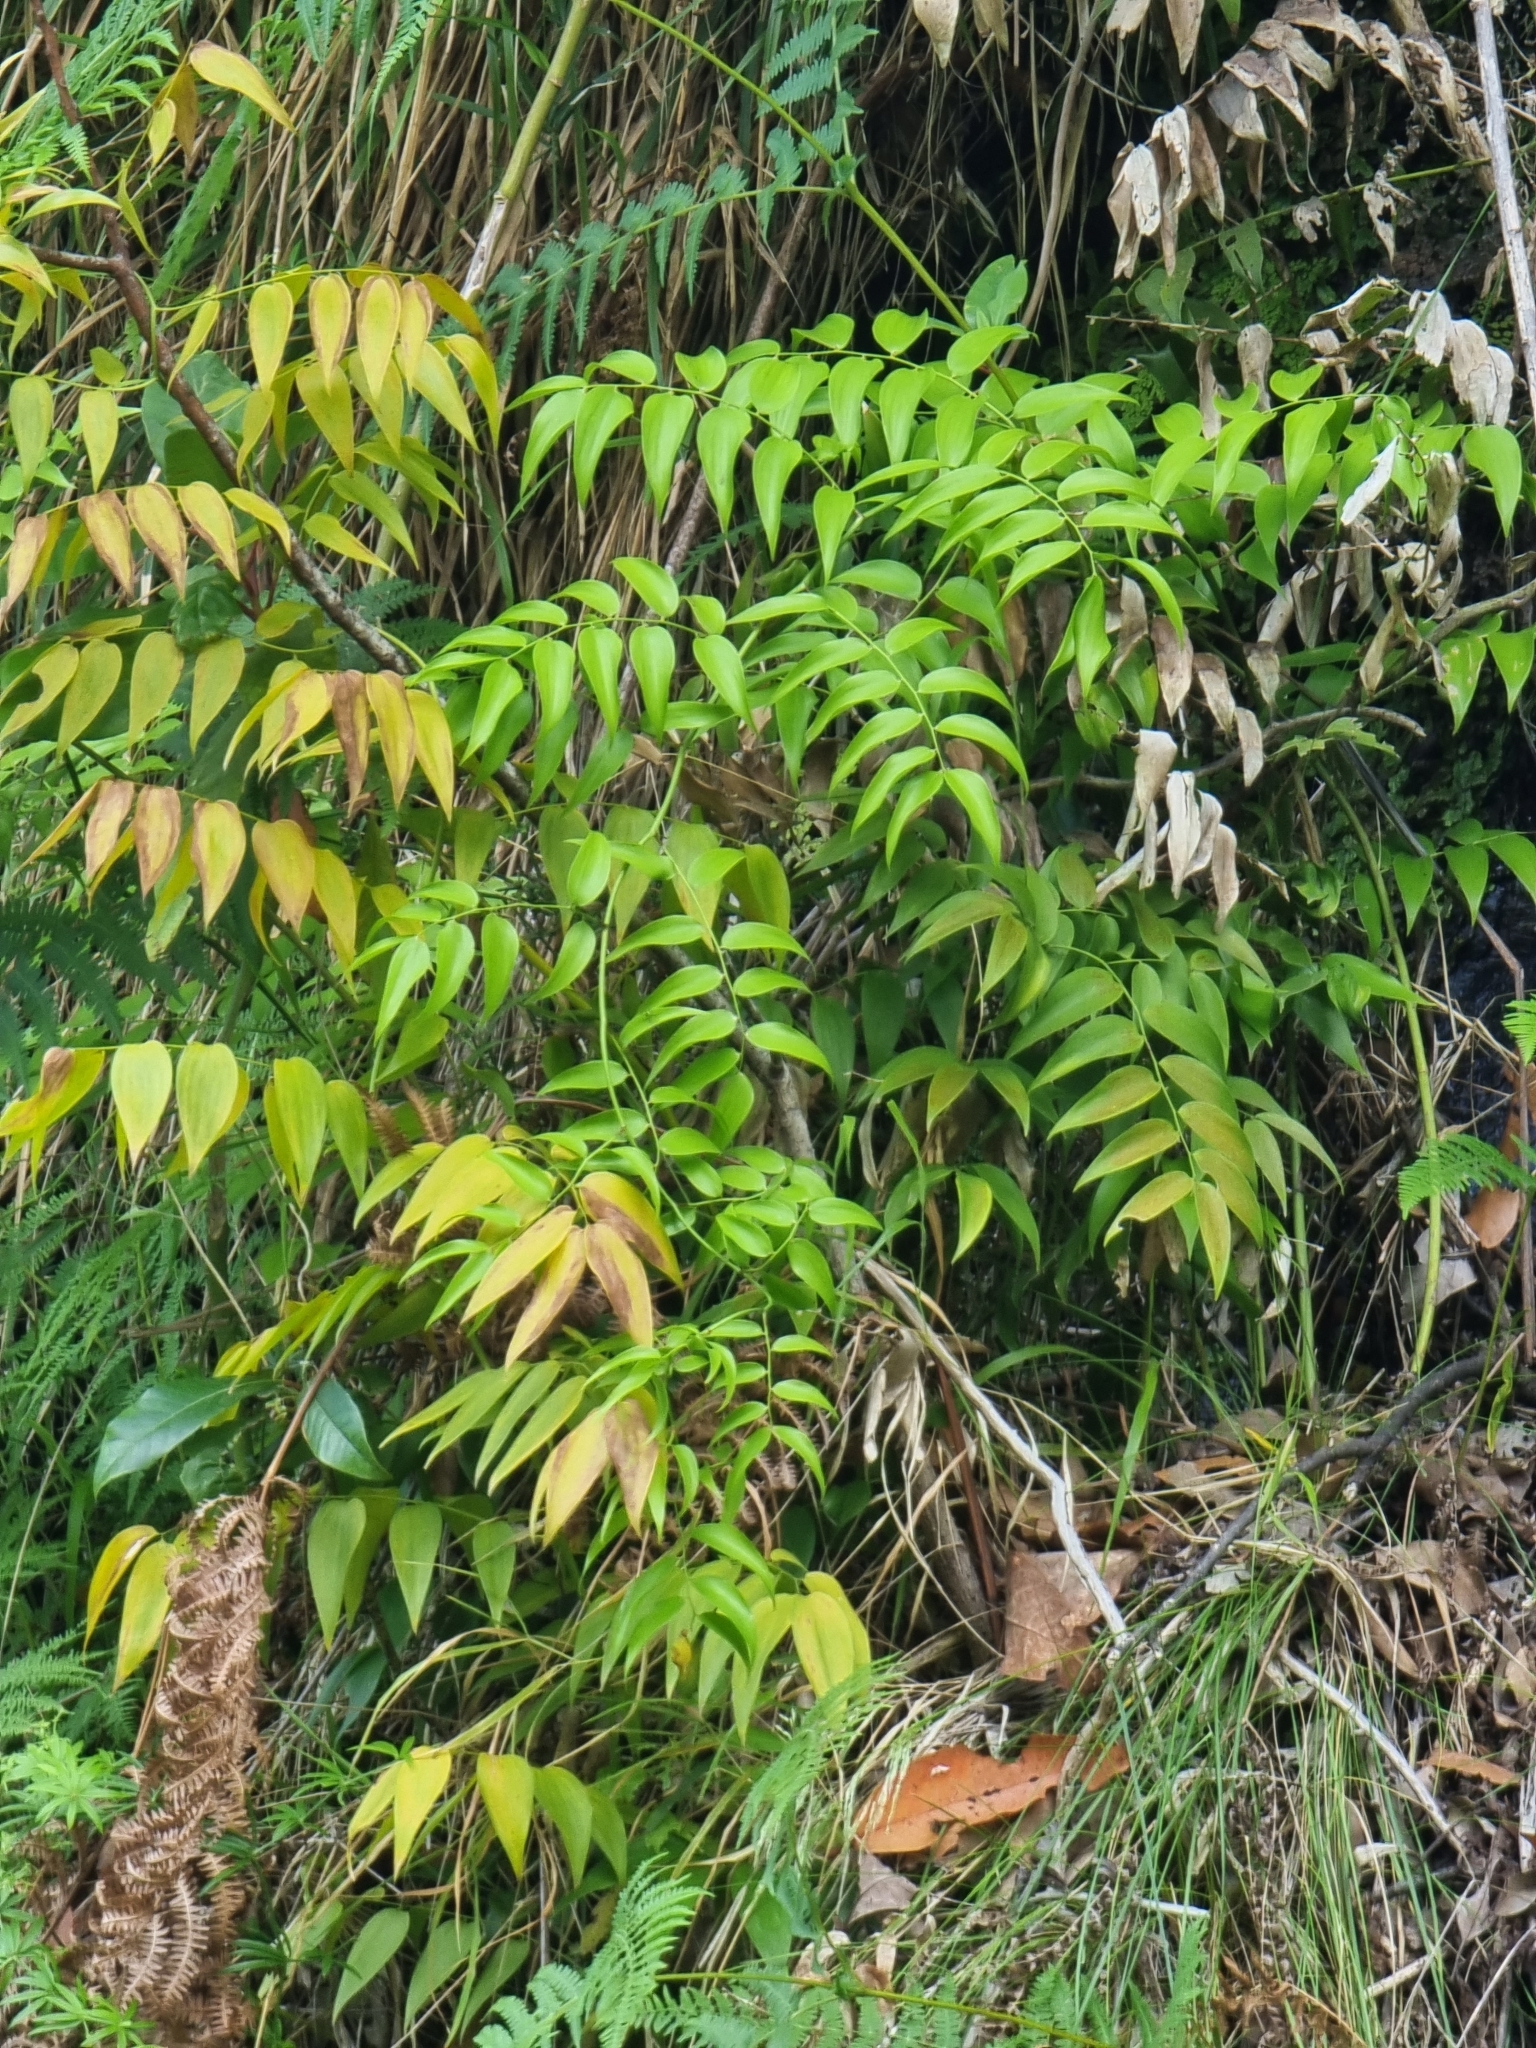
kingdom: Plantae
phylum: Tracheophyta
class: Liliopsida
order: Asparagales
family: Asparagaceae
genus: Semele
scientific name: Semele androgyna
